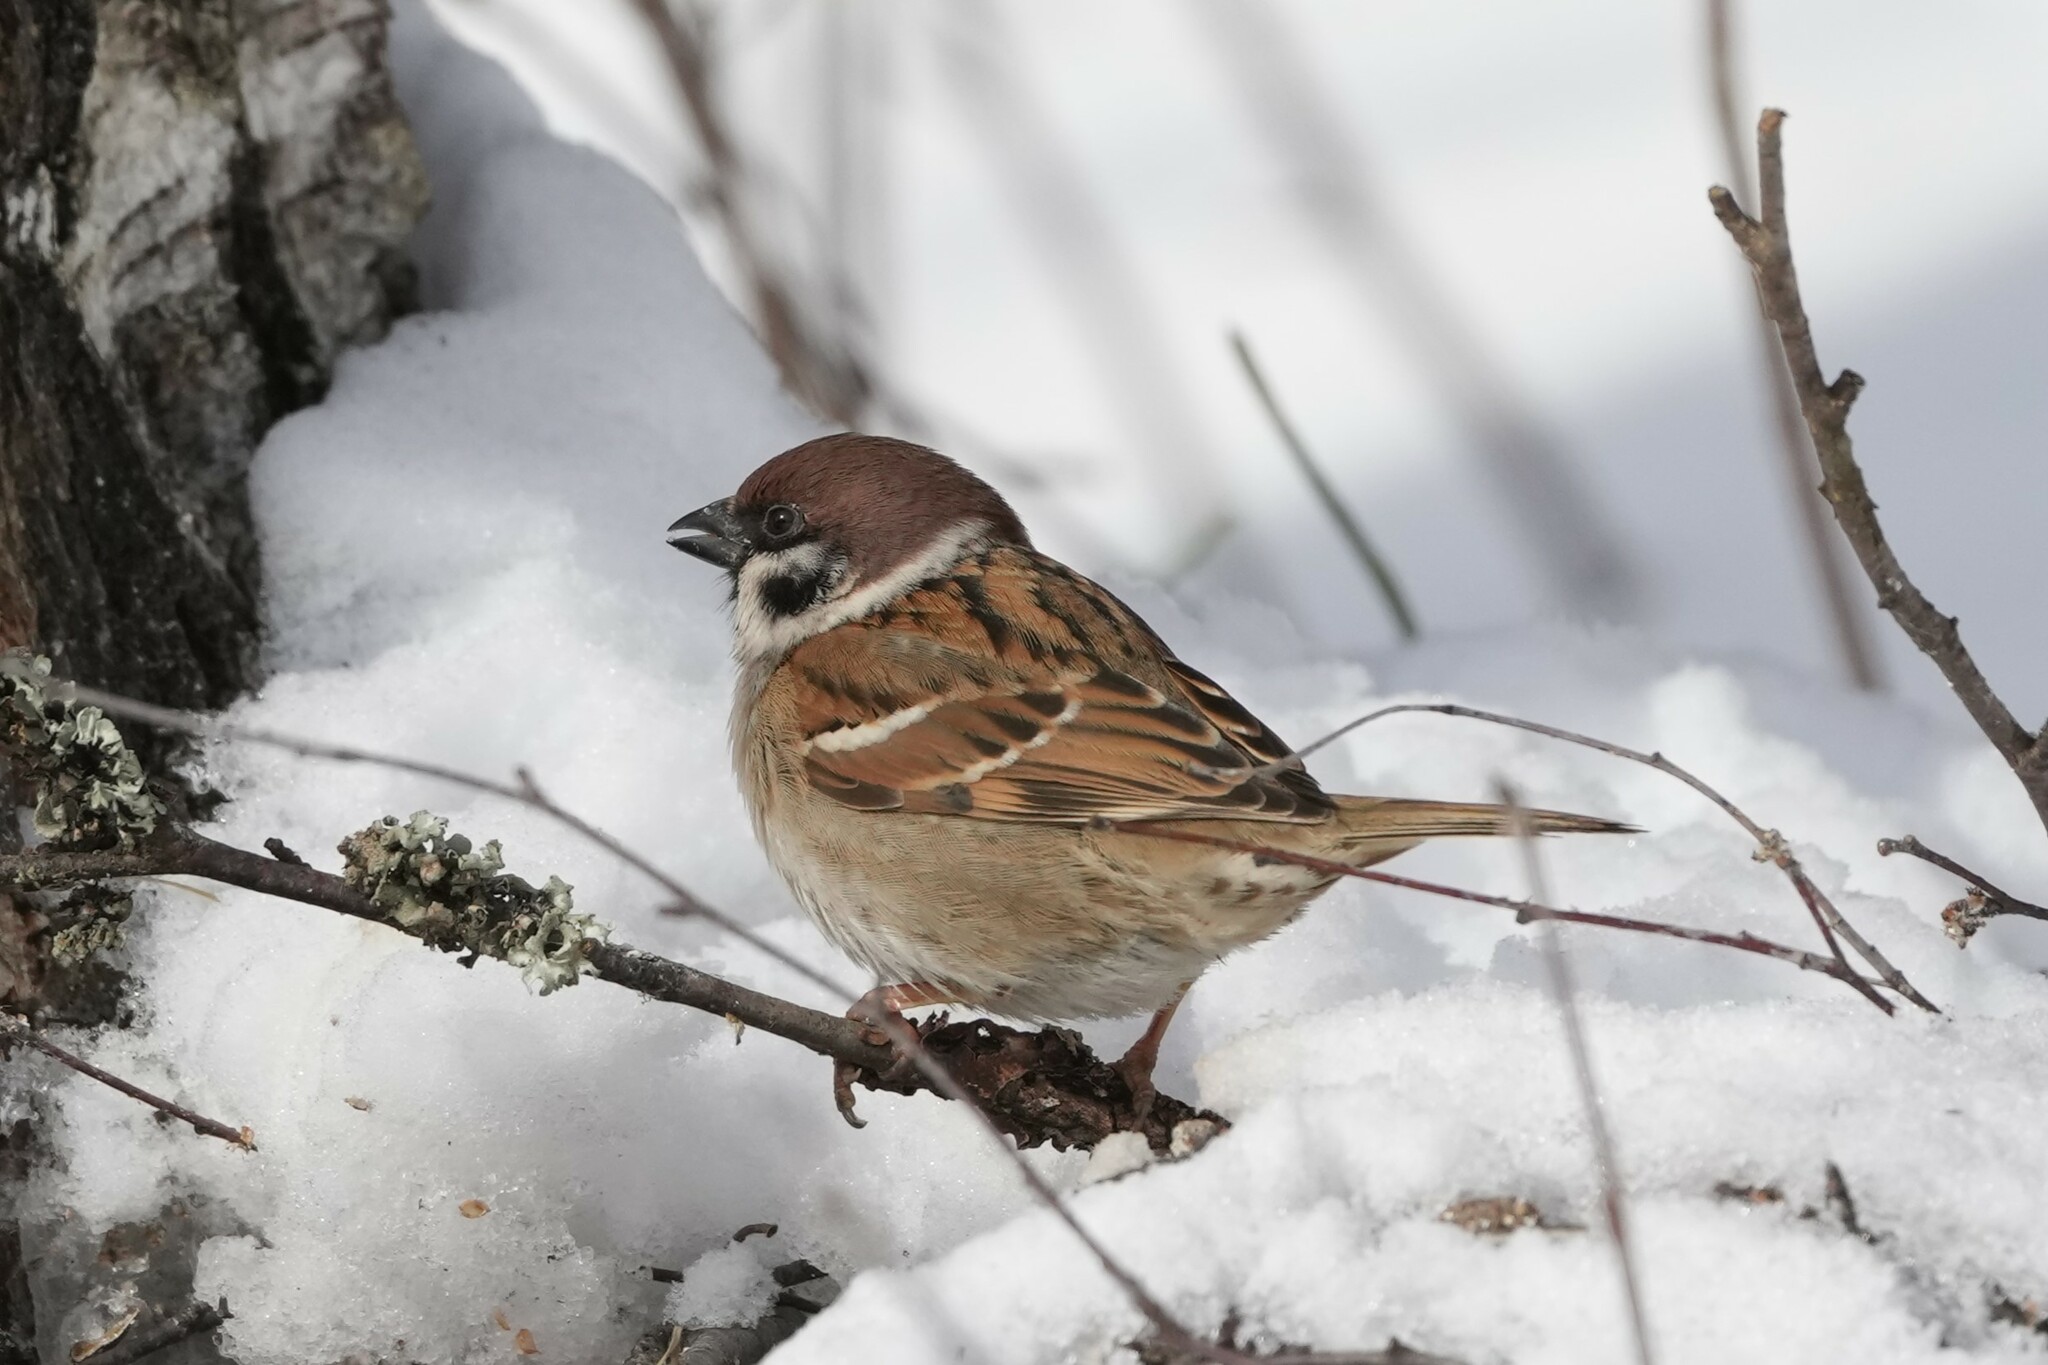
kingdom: Animalia
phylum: Chordata
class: Aves
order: Passeriformes
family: Passeridae
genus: Passer
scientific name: Passer montanus
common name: Eurasian tree sparrow
